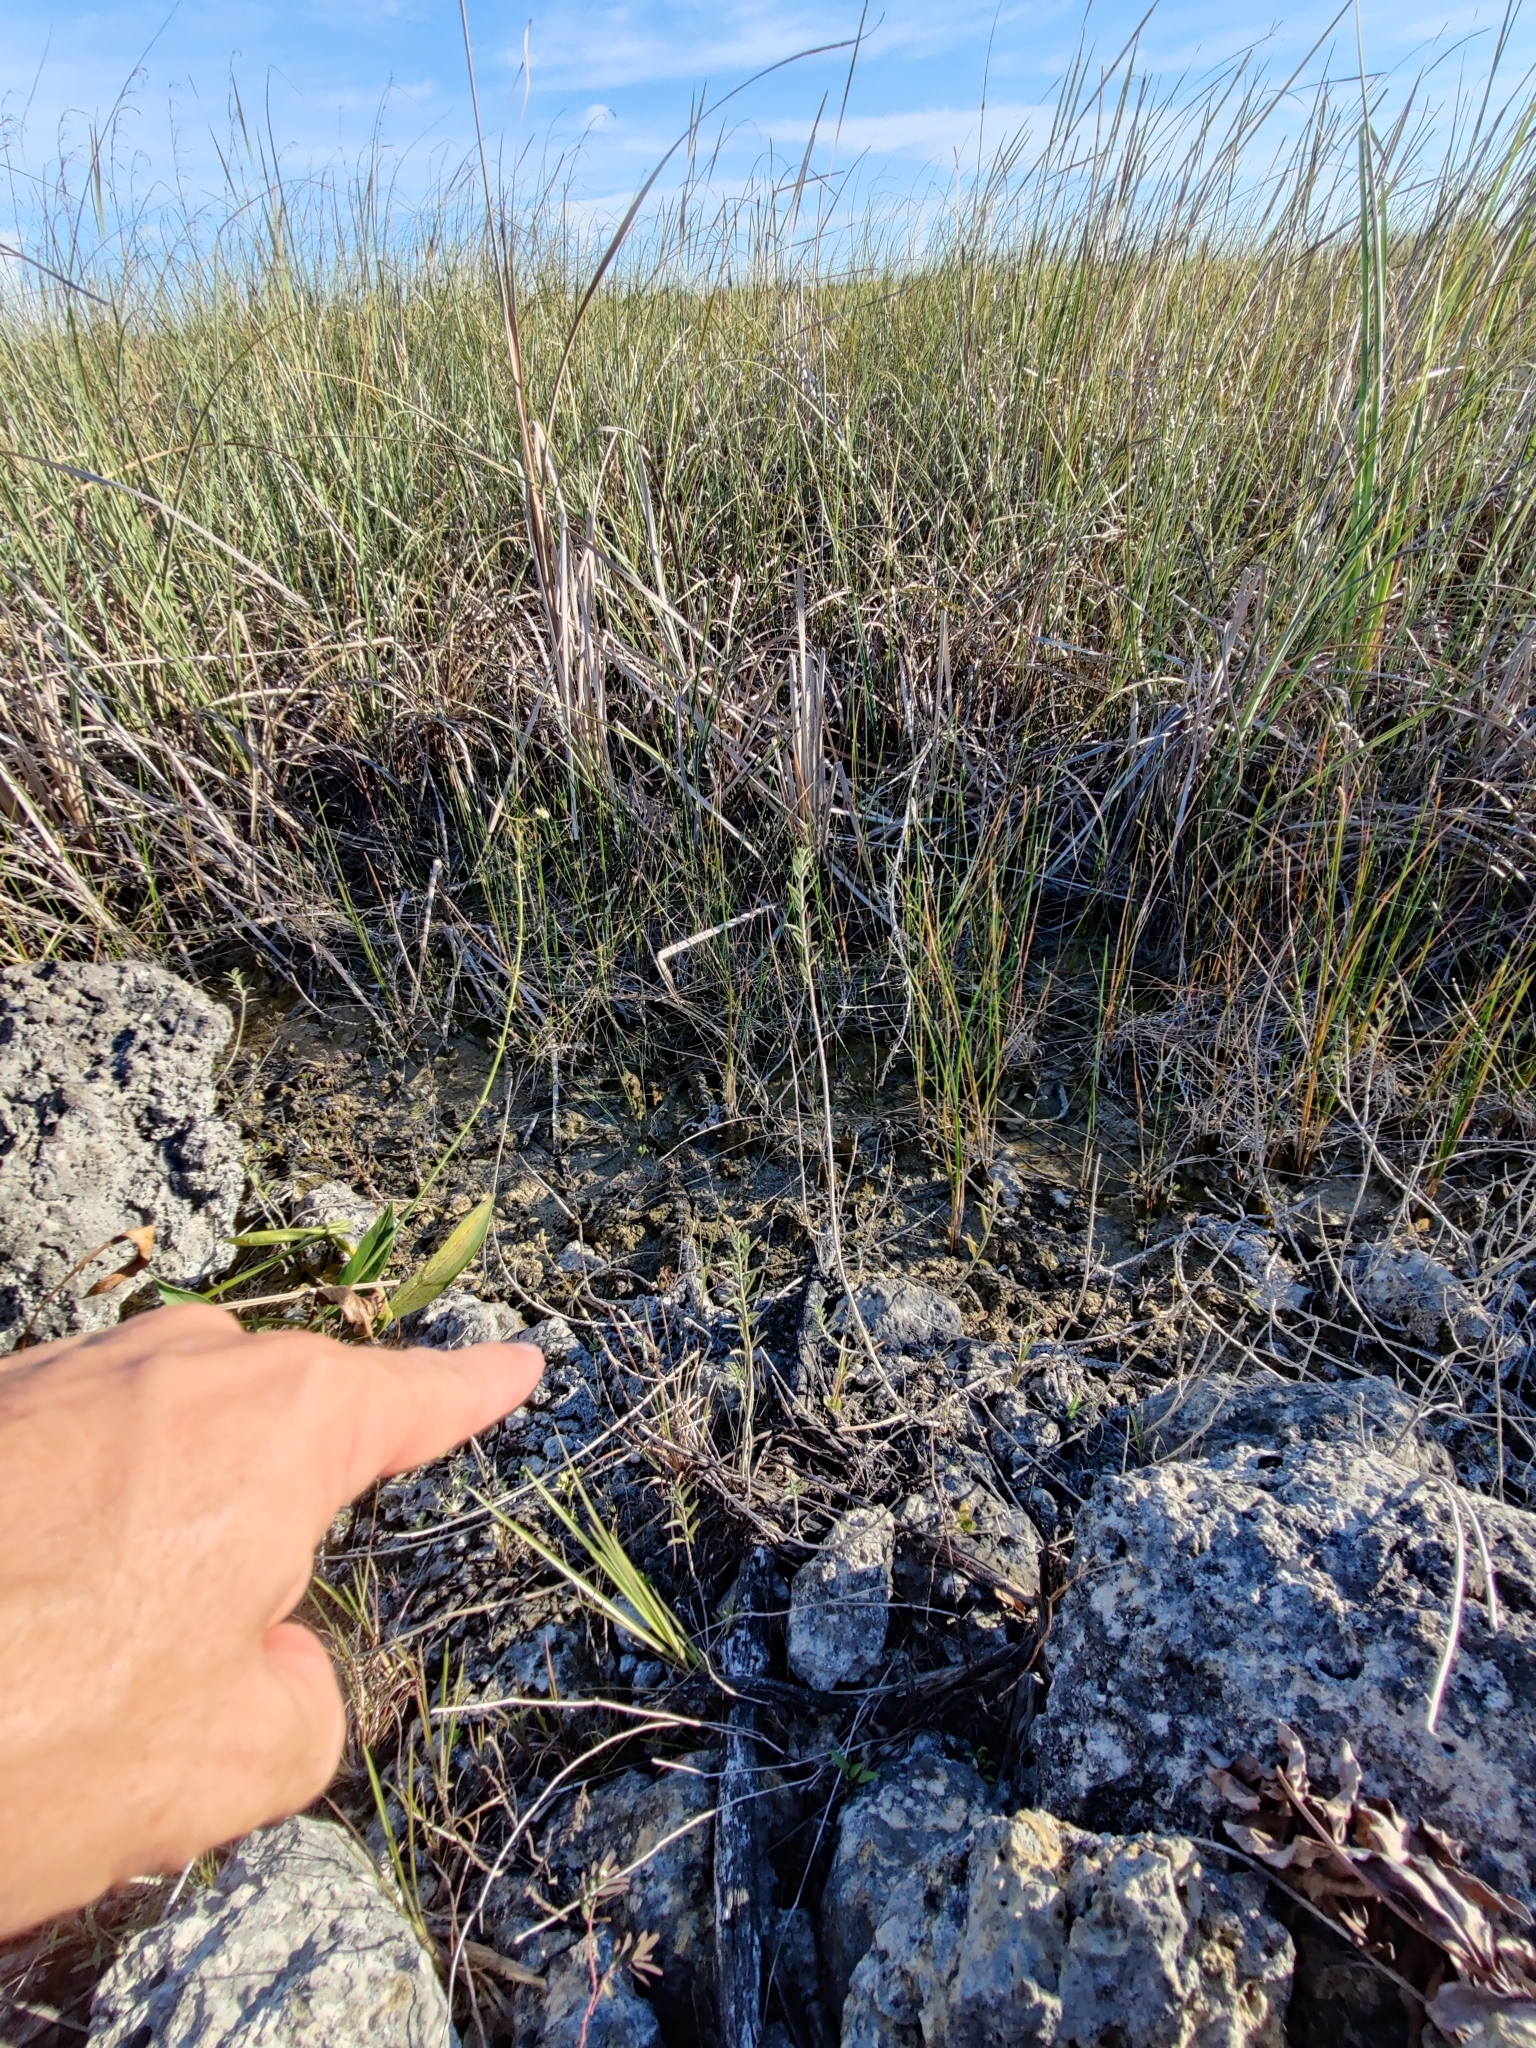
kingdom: Plantae
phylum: Tracheophyta
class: Magnoliopsida
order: Lamiales
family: Verbenaceae
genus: Lippia
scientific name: Lippia stoechadifolia
